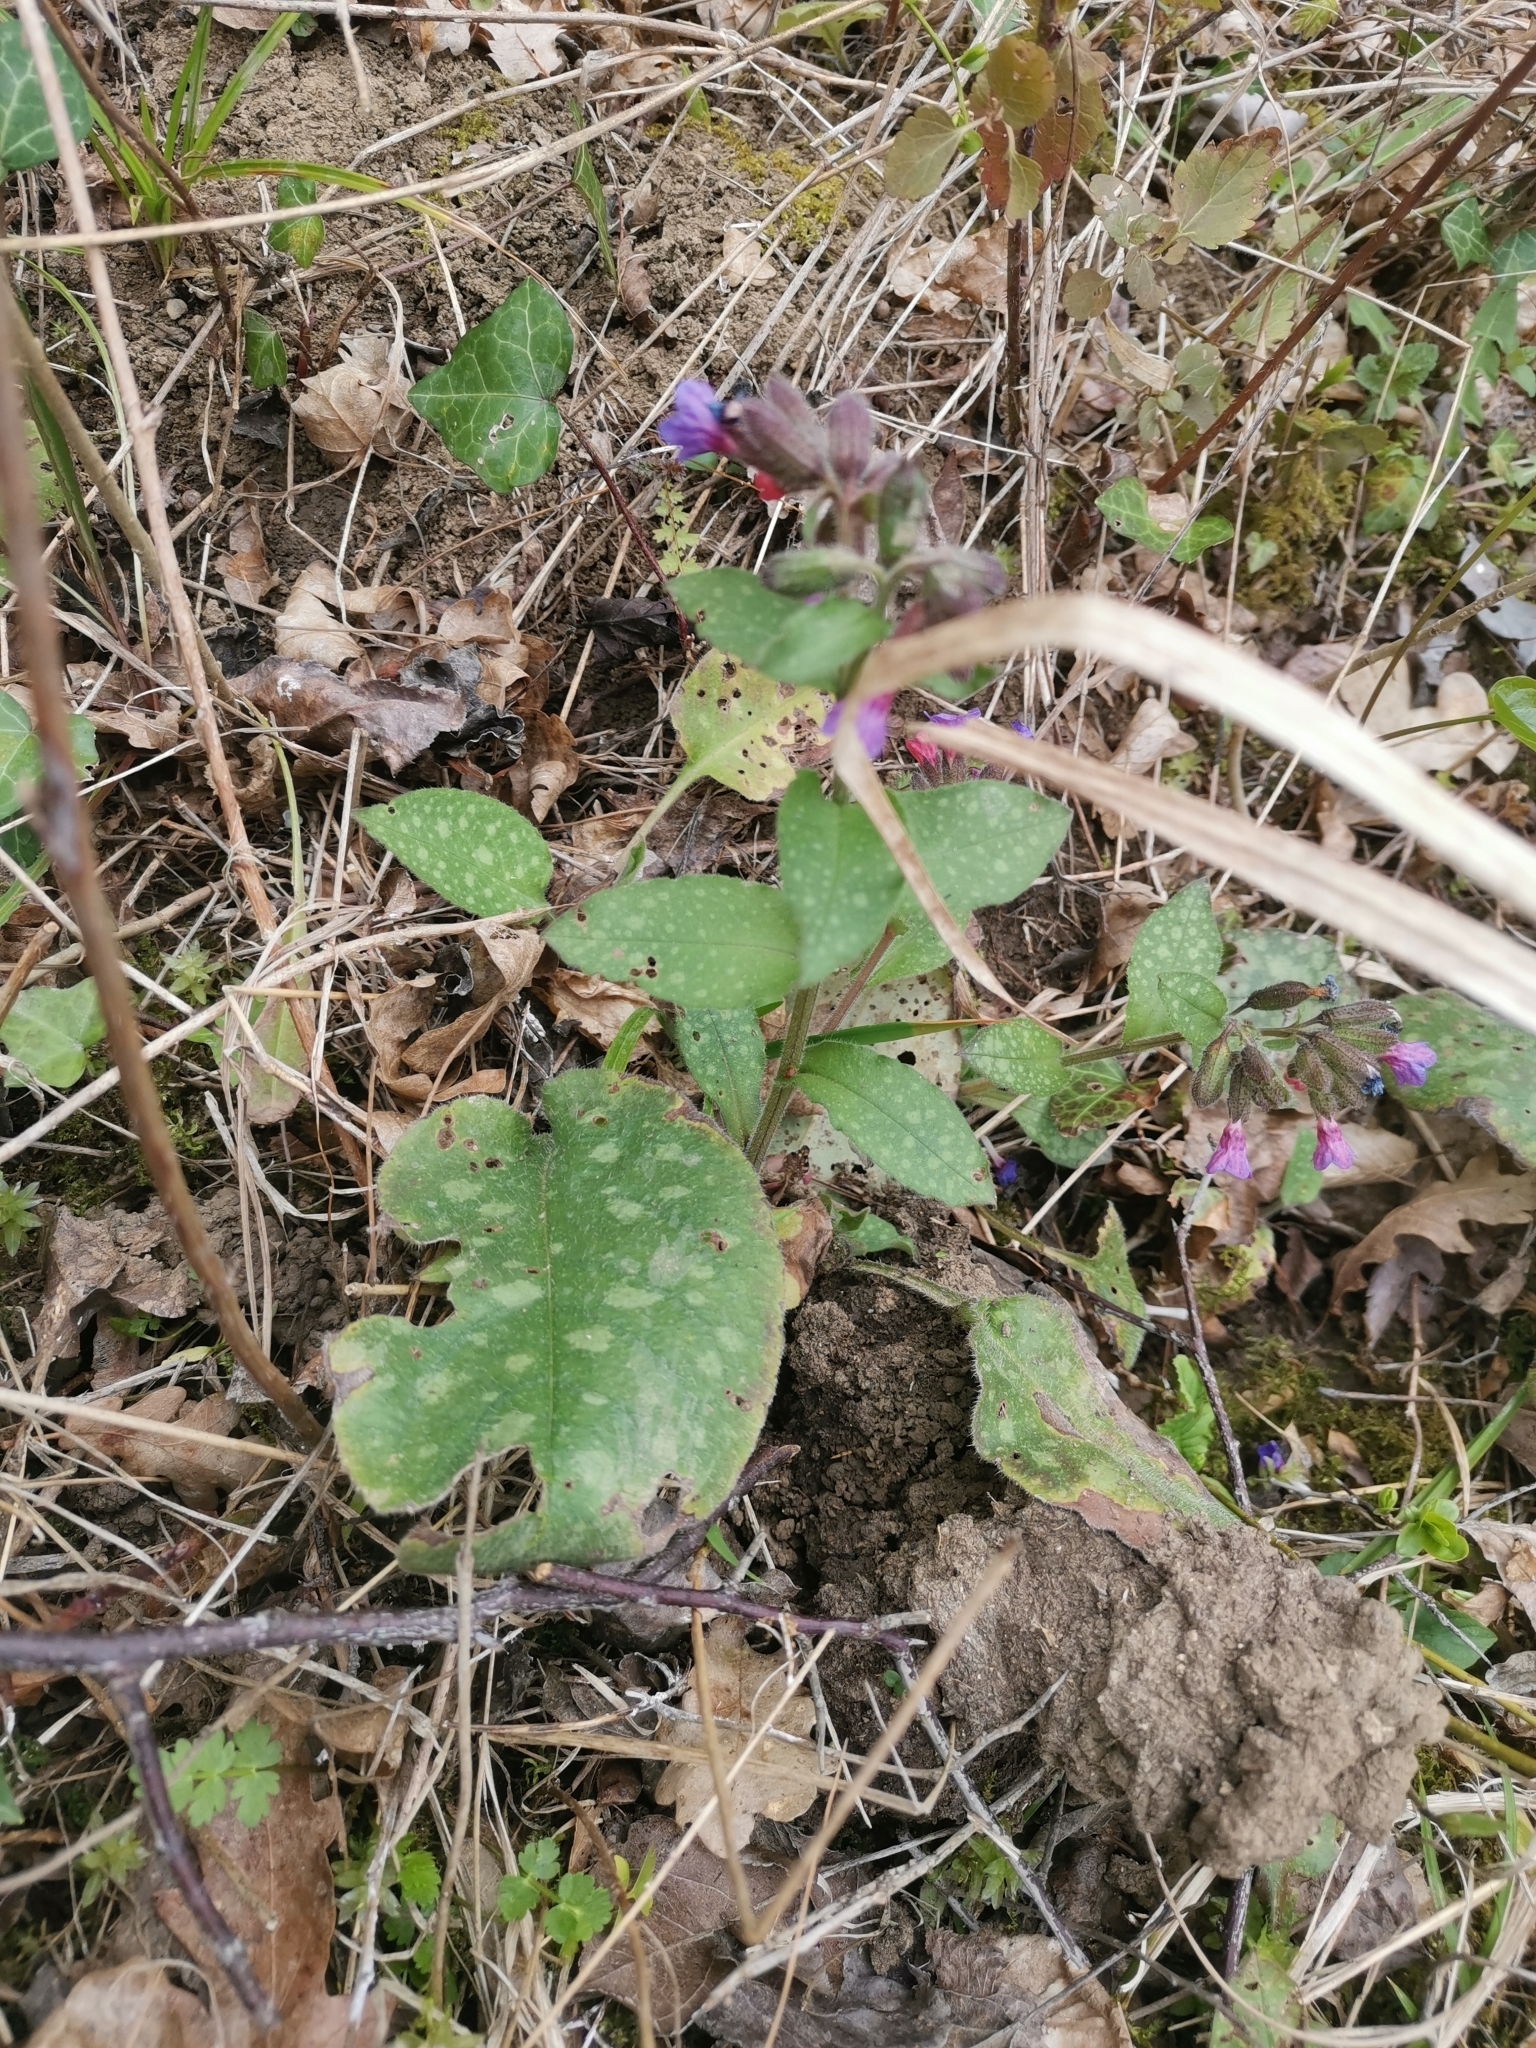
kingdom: Plantae
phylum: Tracheophyta
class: Magnoliopsida
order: Boraginales
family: Boraginaceae
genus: Pulmonaria
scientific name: Pulmonaria officinalis
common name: Lungwort
